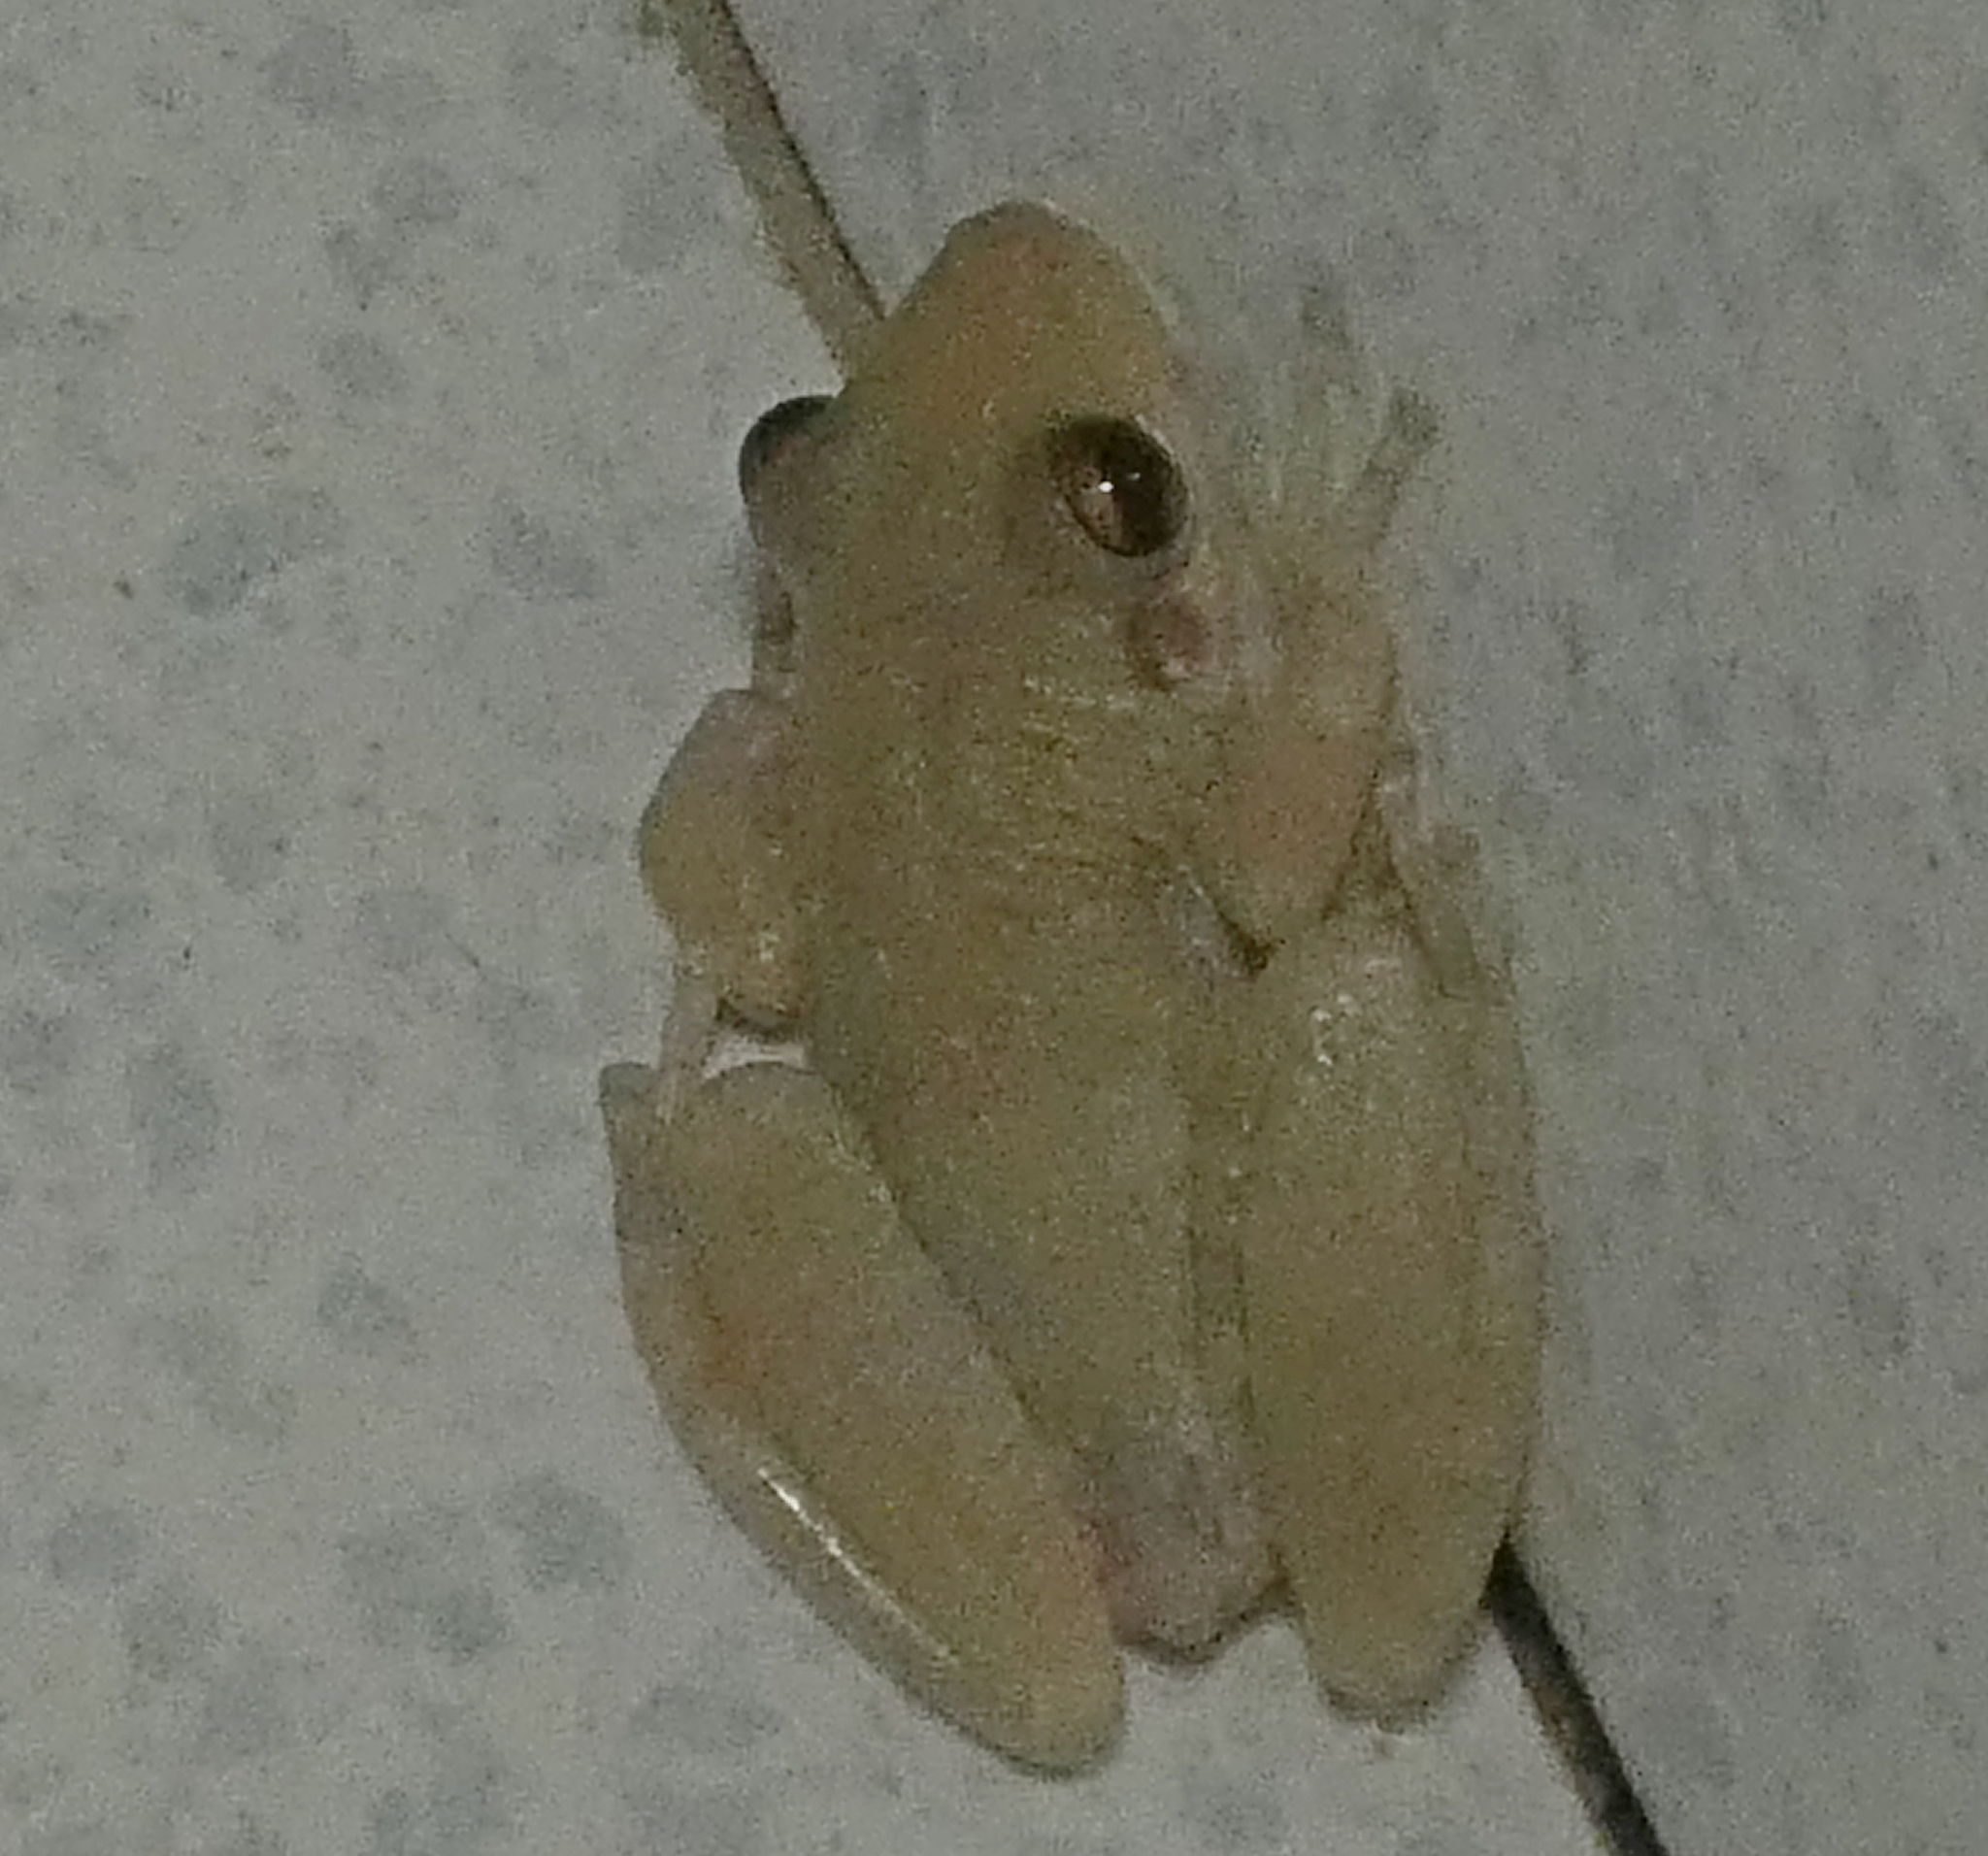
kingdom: Animalia
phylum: Chordata
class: Amphibia
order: Anura
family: Hylidae
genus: Scinax
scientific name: Scinax x-signatus
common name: Venezuela snouted treefrog
